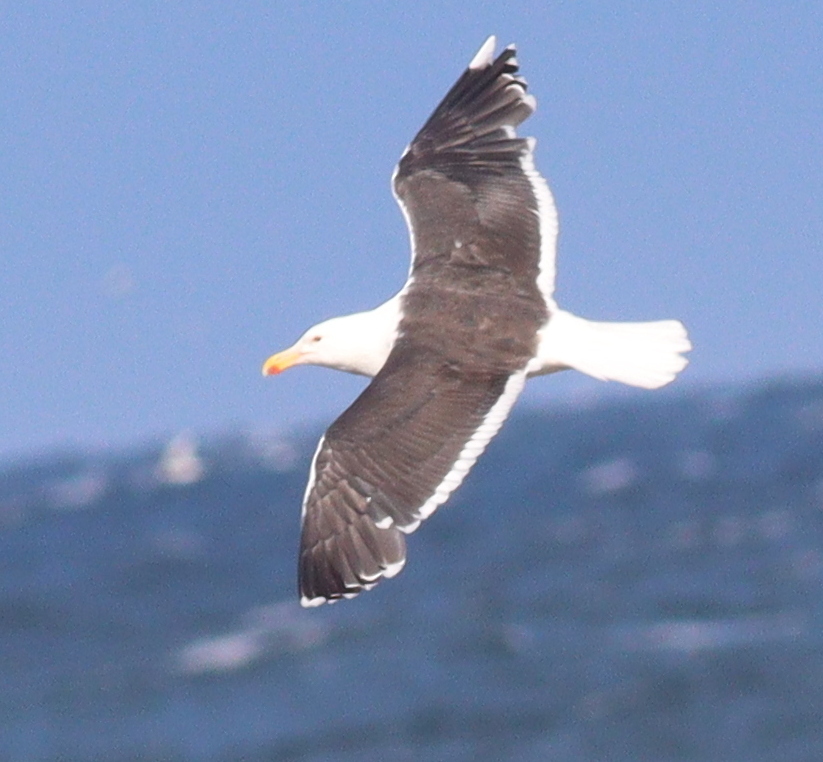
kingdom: Animalia
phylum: Chordata
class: Aves
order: Charadriiformes
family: Laridae
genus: Larus
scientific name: Larus marinus
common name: Great black-backed gull
